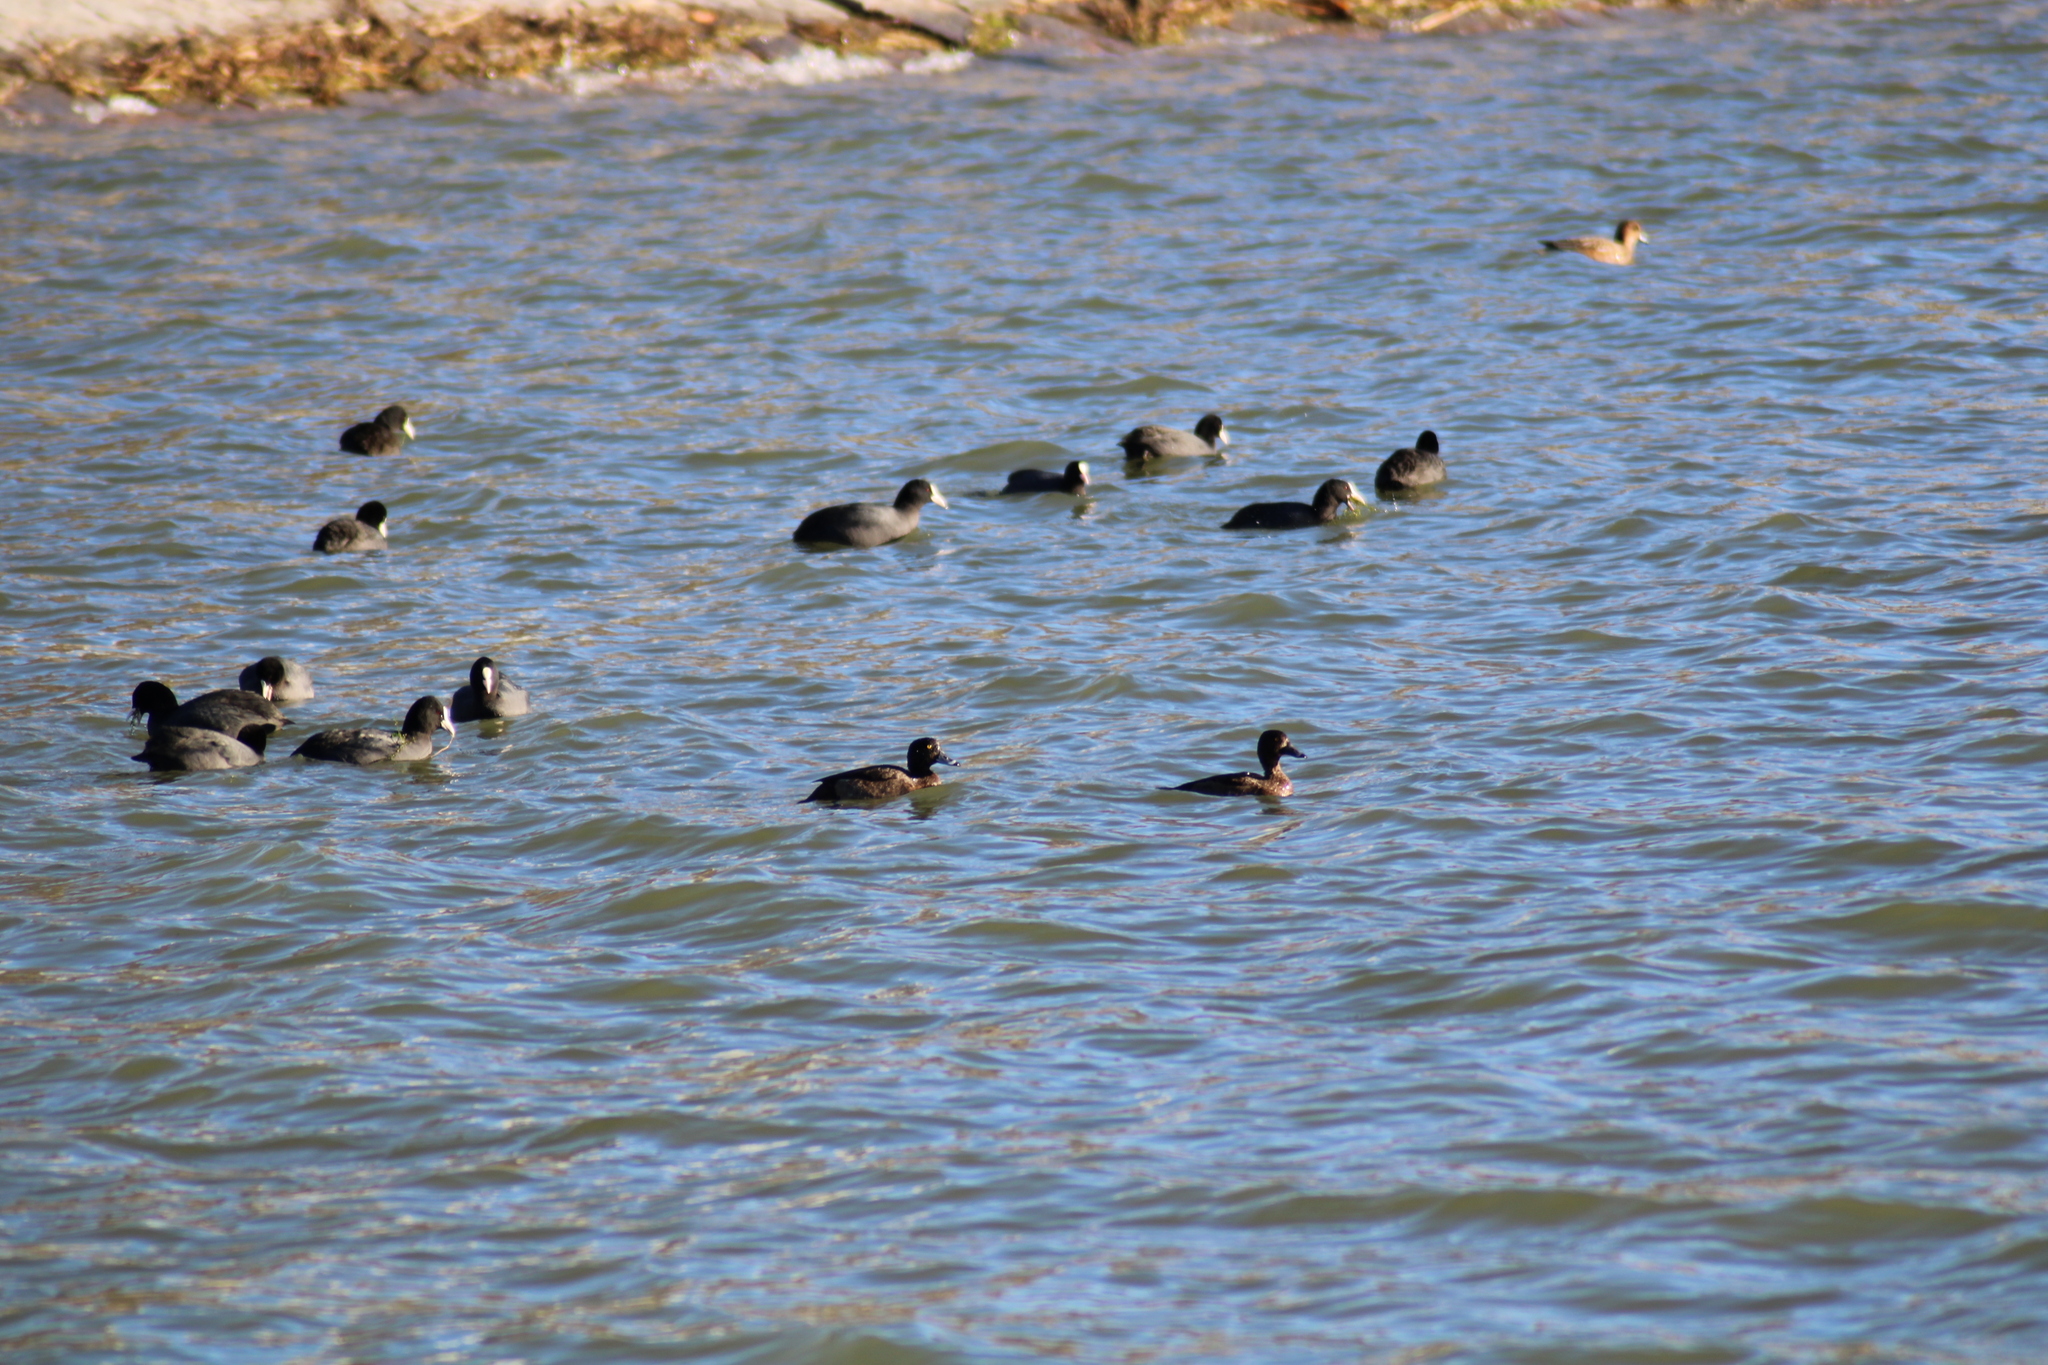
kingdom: Animalia
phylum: Chordata
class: Aves
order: Anseriformes
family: Anatidae
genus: Aythya
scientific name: Aythya fuligula
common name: Tufted duck
